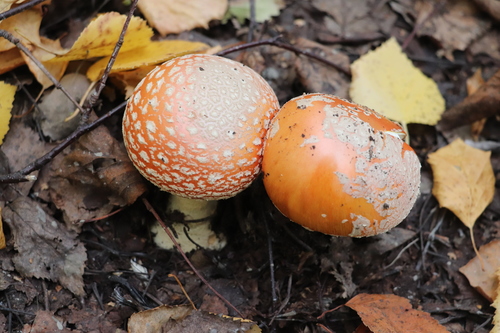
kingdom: Fungi
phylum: Basidiomycota
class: Agaricomycetes
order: Agaricales
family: Amanitaceae
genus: Amanita
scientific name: Amanita muscaria
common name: Fly agaric
